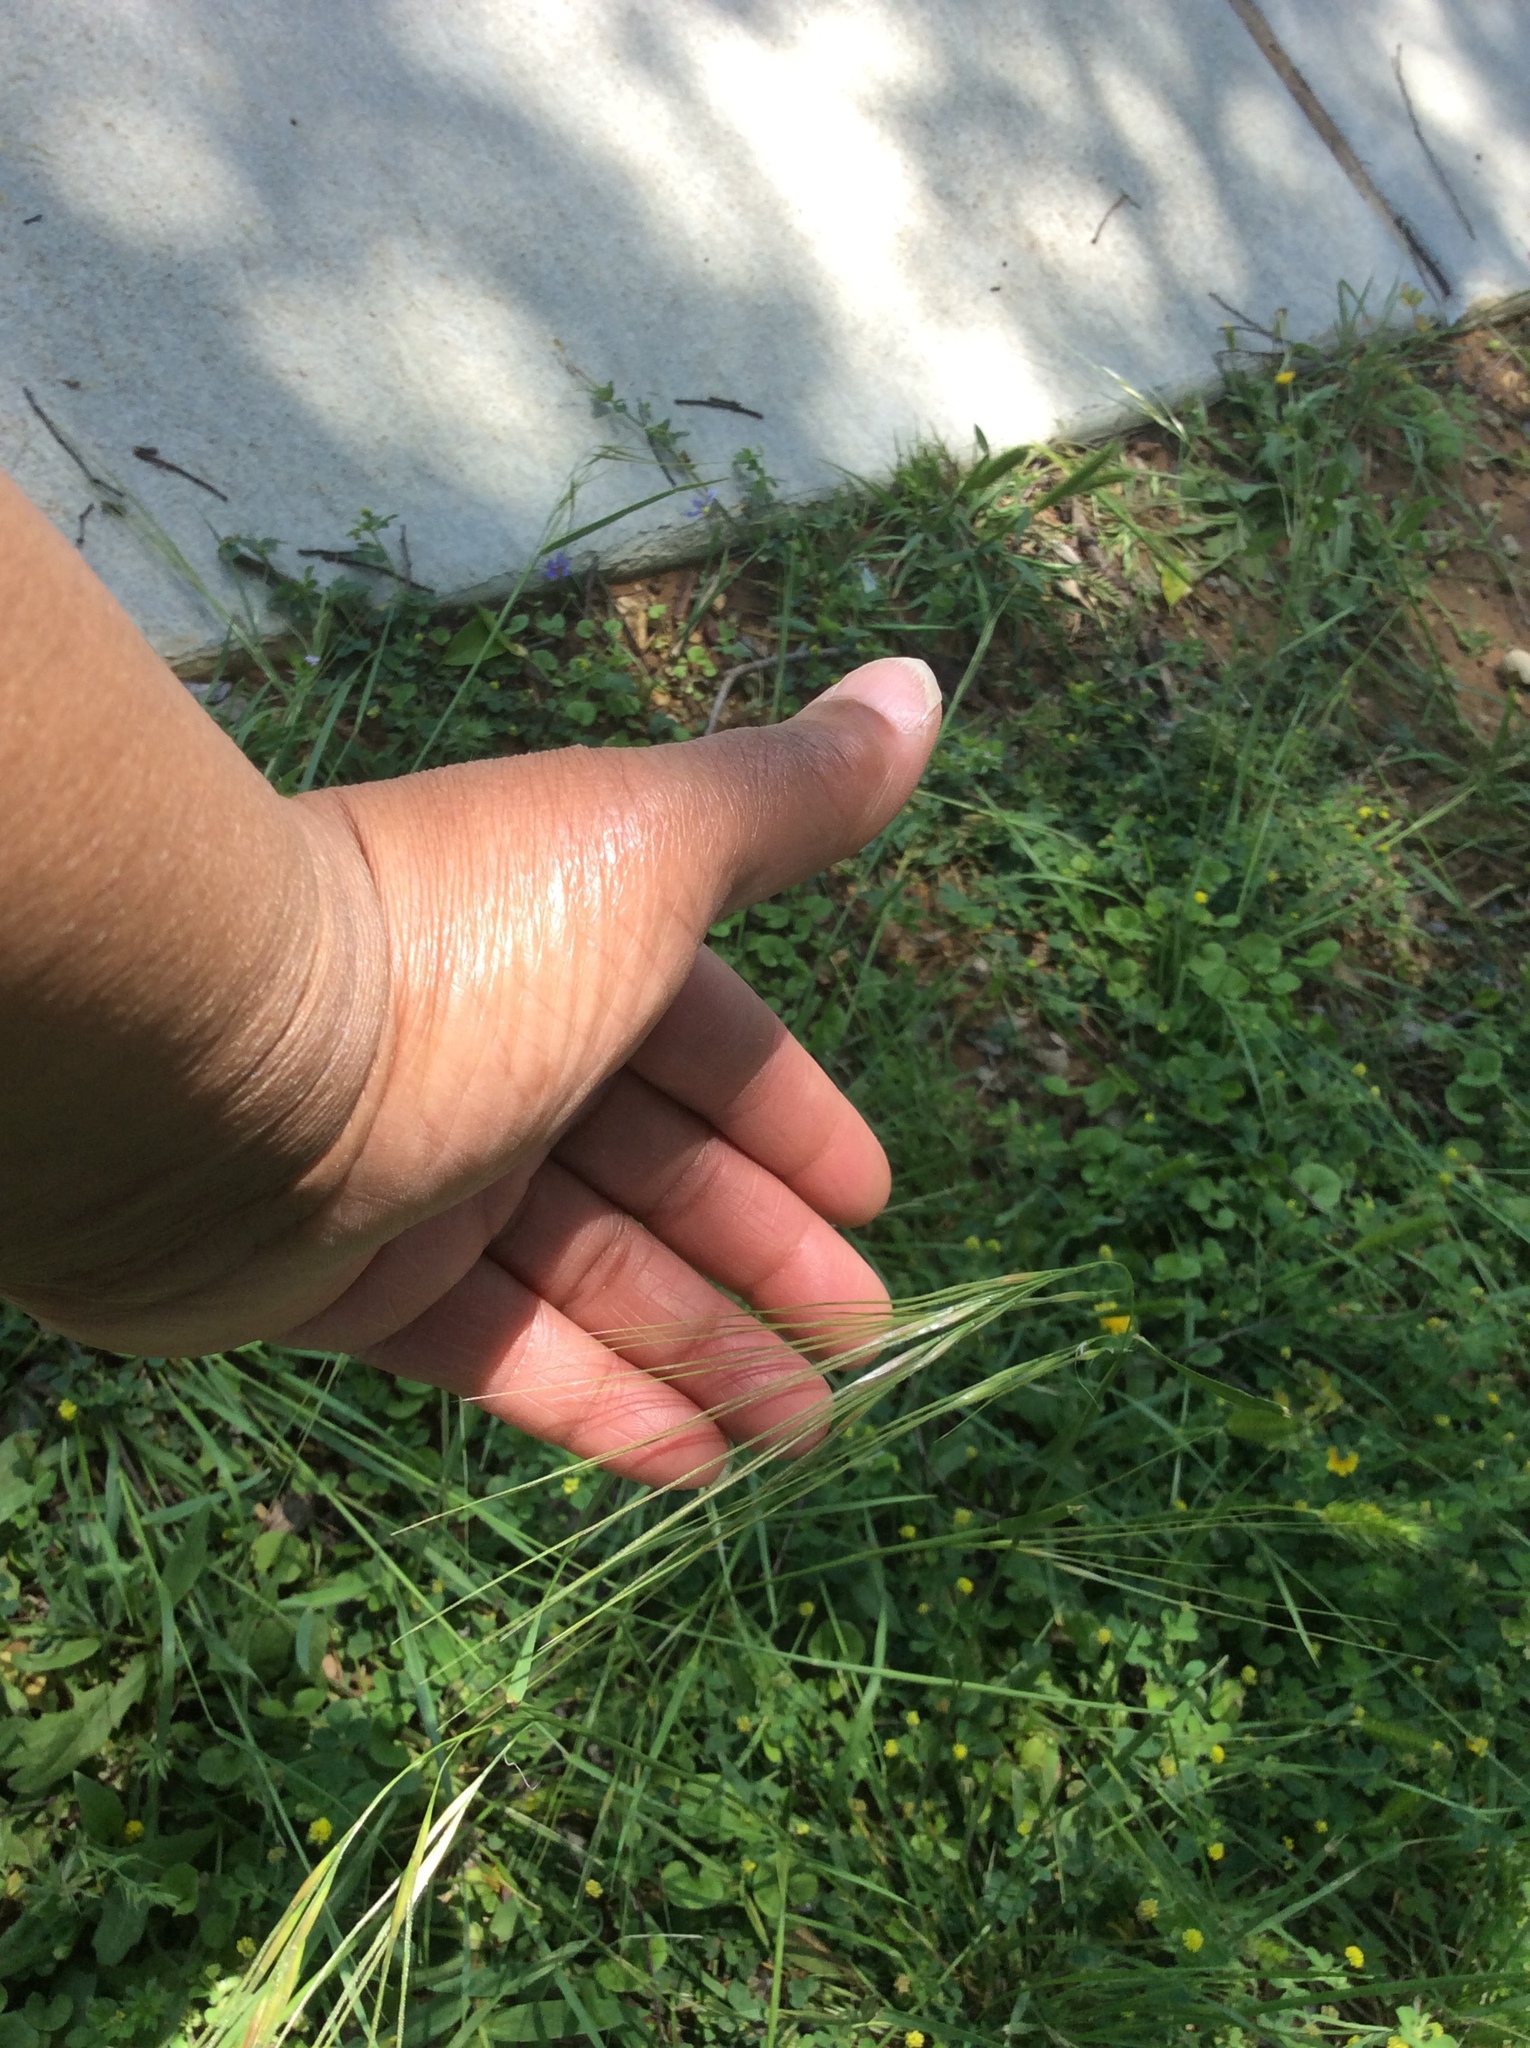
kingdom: Plantae
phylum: Tracheophyta
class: Liliopsida
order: Poales
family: Poaceae
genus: Nassella
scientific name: Nassella leucotricha
